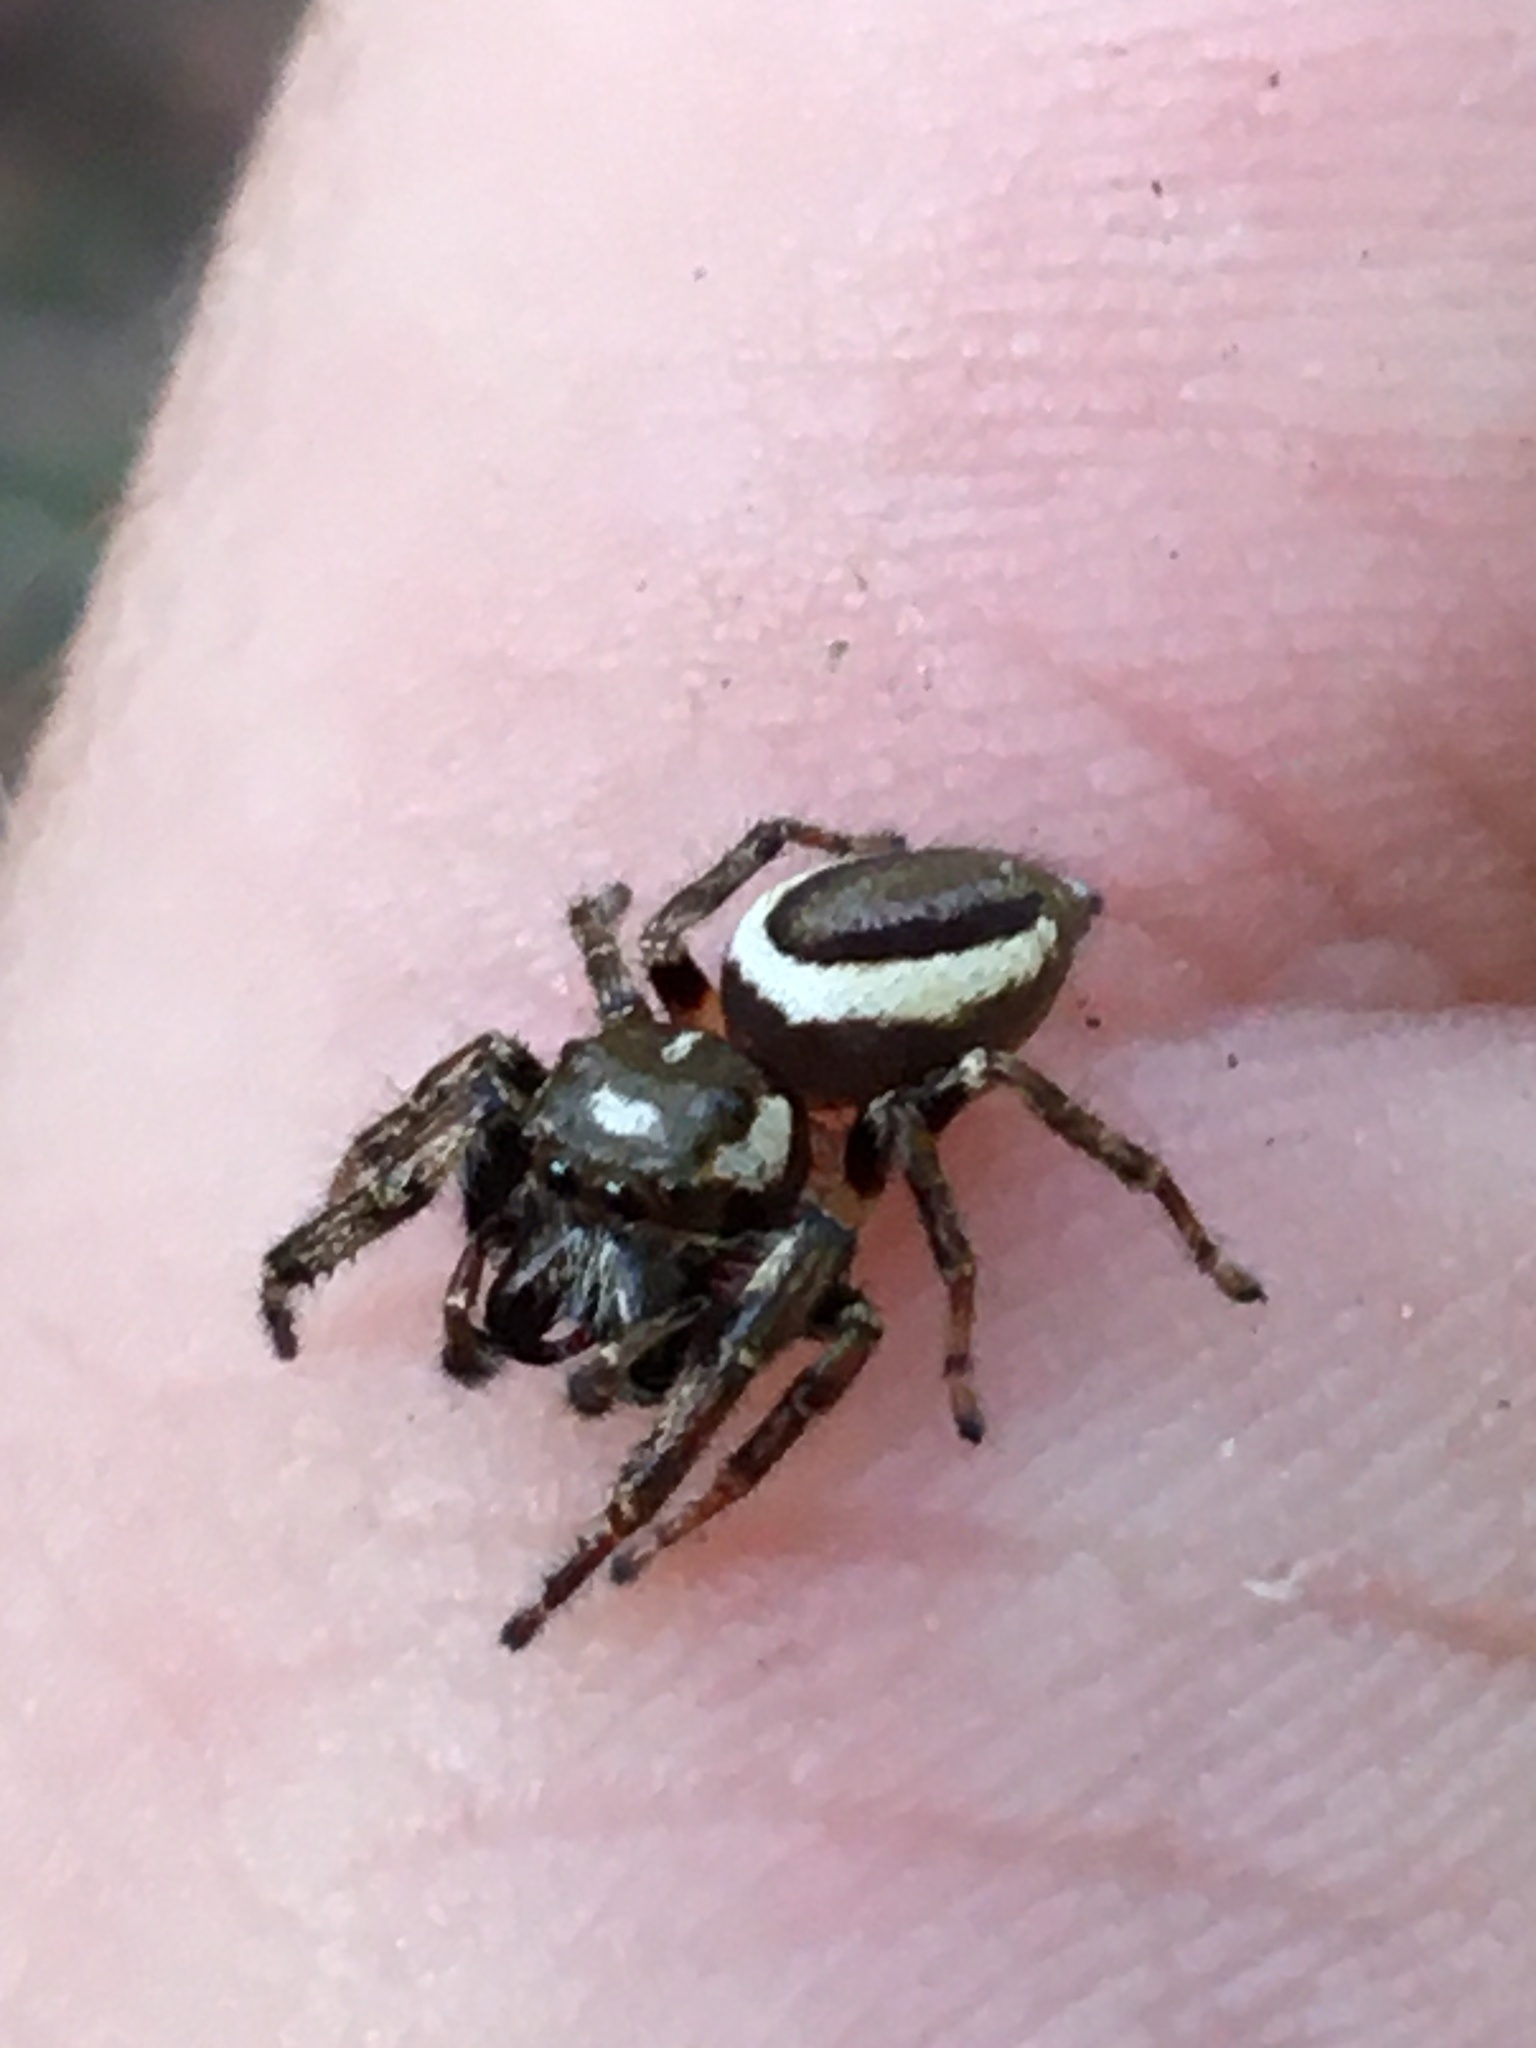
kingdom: Animalia
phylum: Arthropoda
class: Arachnida
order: Araneae
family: Salticidae
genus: Eris
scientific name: Eris militaris
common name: Bronze jumper
